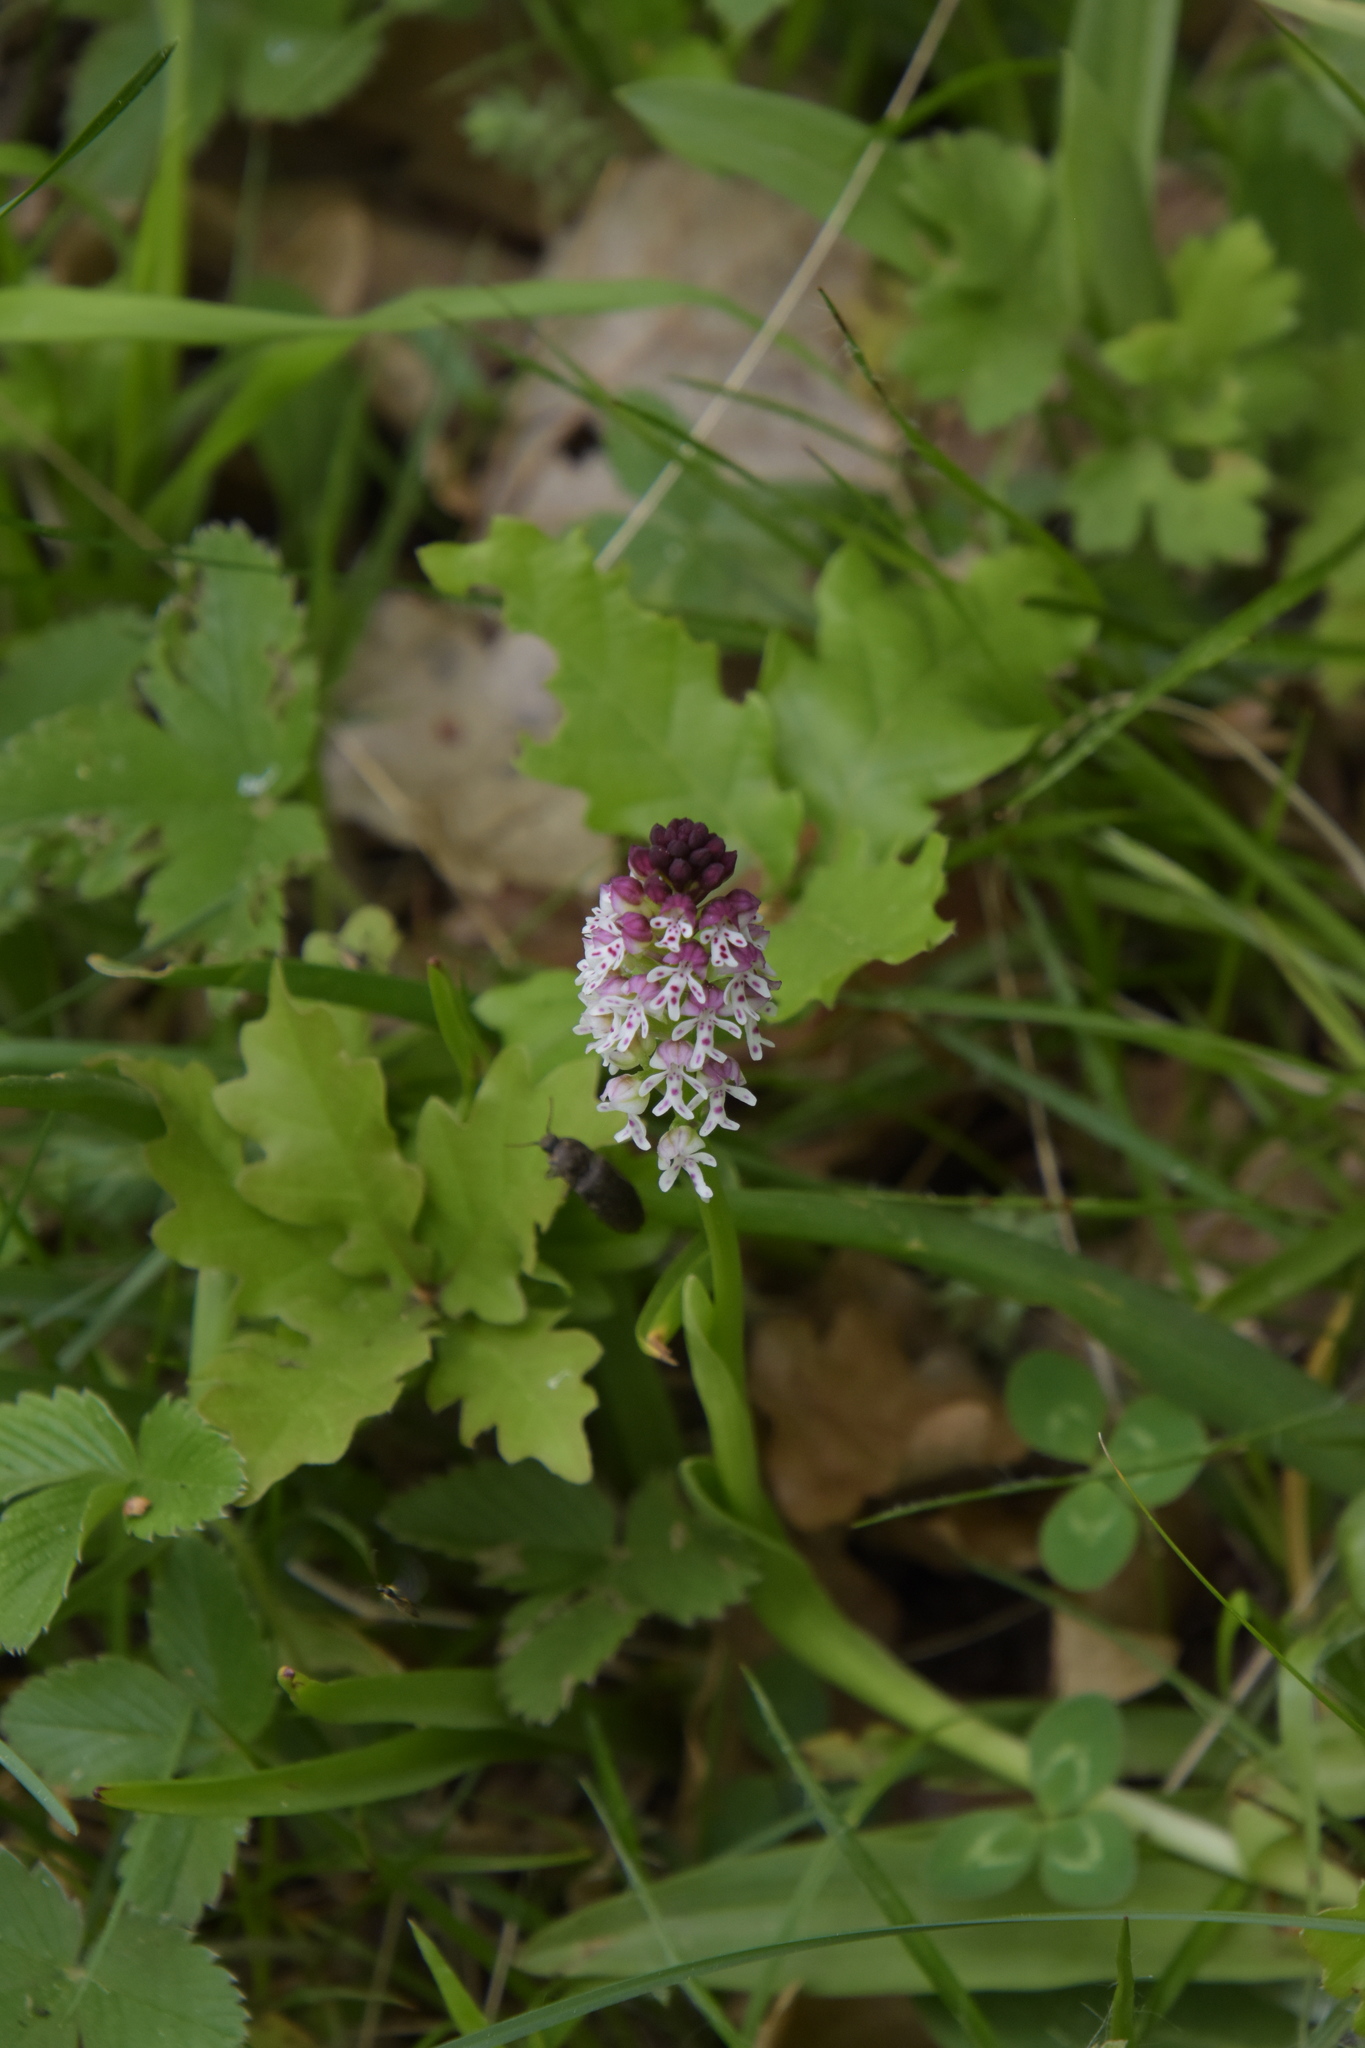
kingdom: Plantae
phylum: Tracheophyta
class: Liliopsida
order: Asparagales
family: Orchidaceae
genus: Neotinea
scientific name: Neotinea ustulata
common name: Burnt orchid
